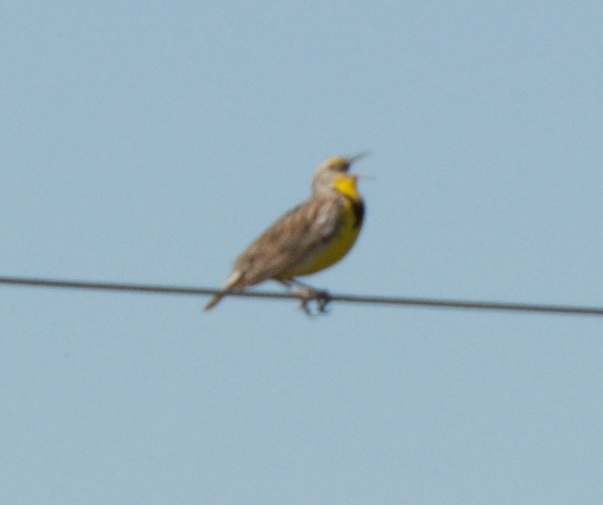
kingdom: Animalia
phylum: Chordata
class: Aves
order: Passeriformes
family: Icteridae
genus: Sturnella
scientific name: Sturnella neglecta
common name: Western meadowlark
